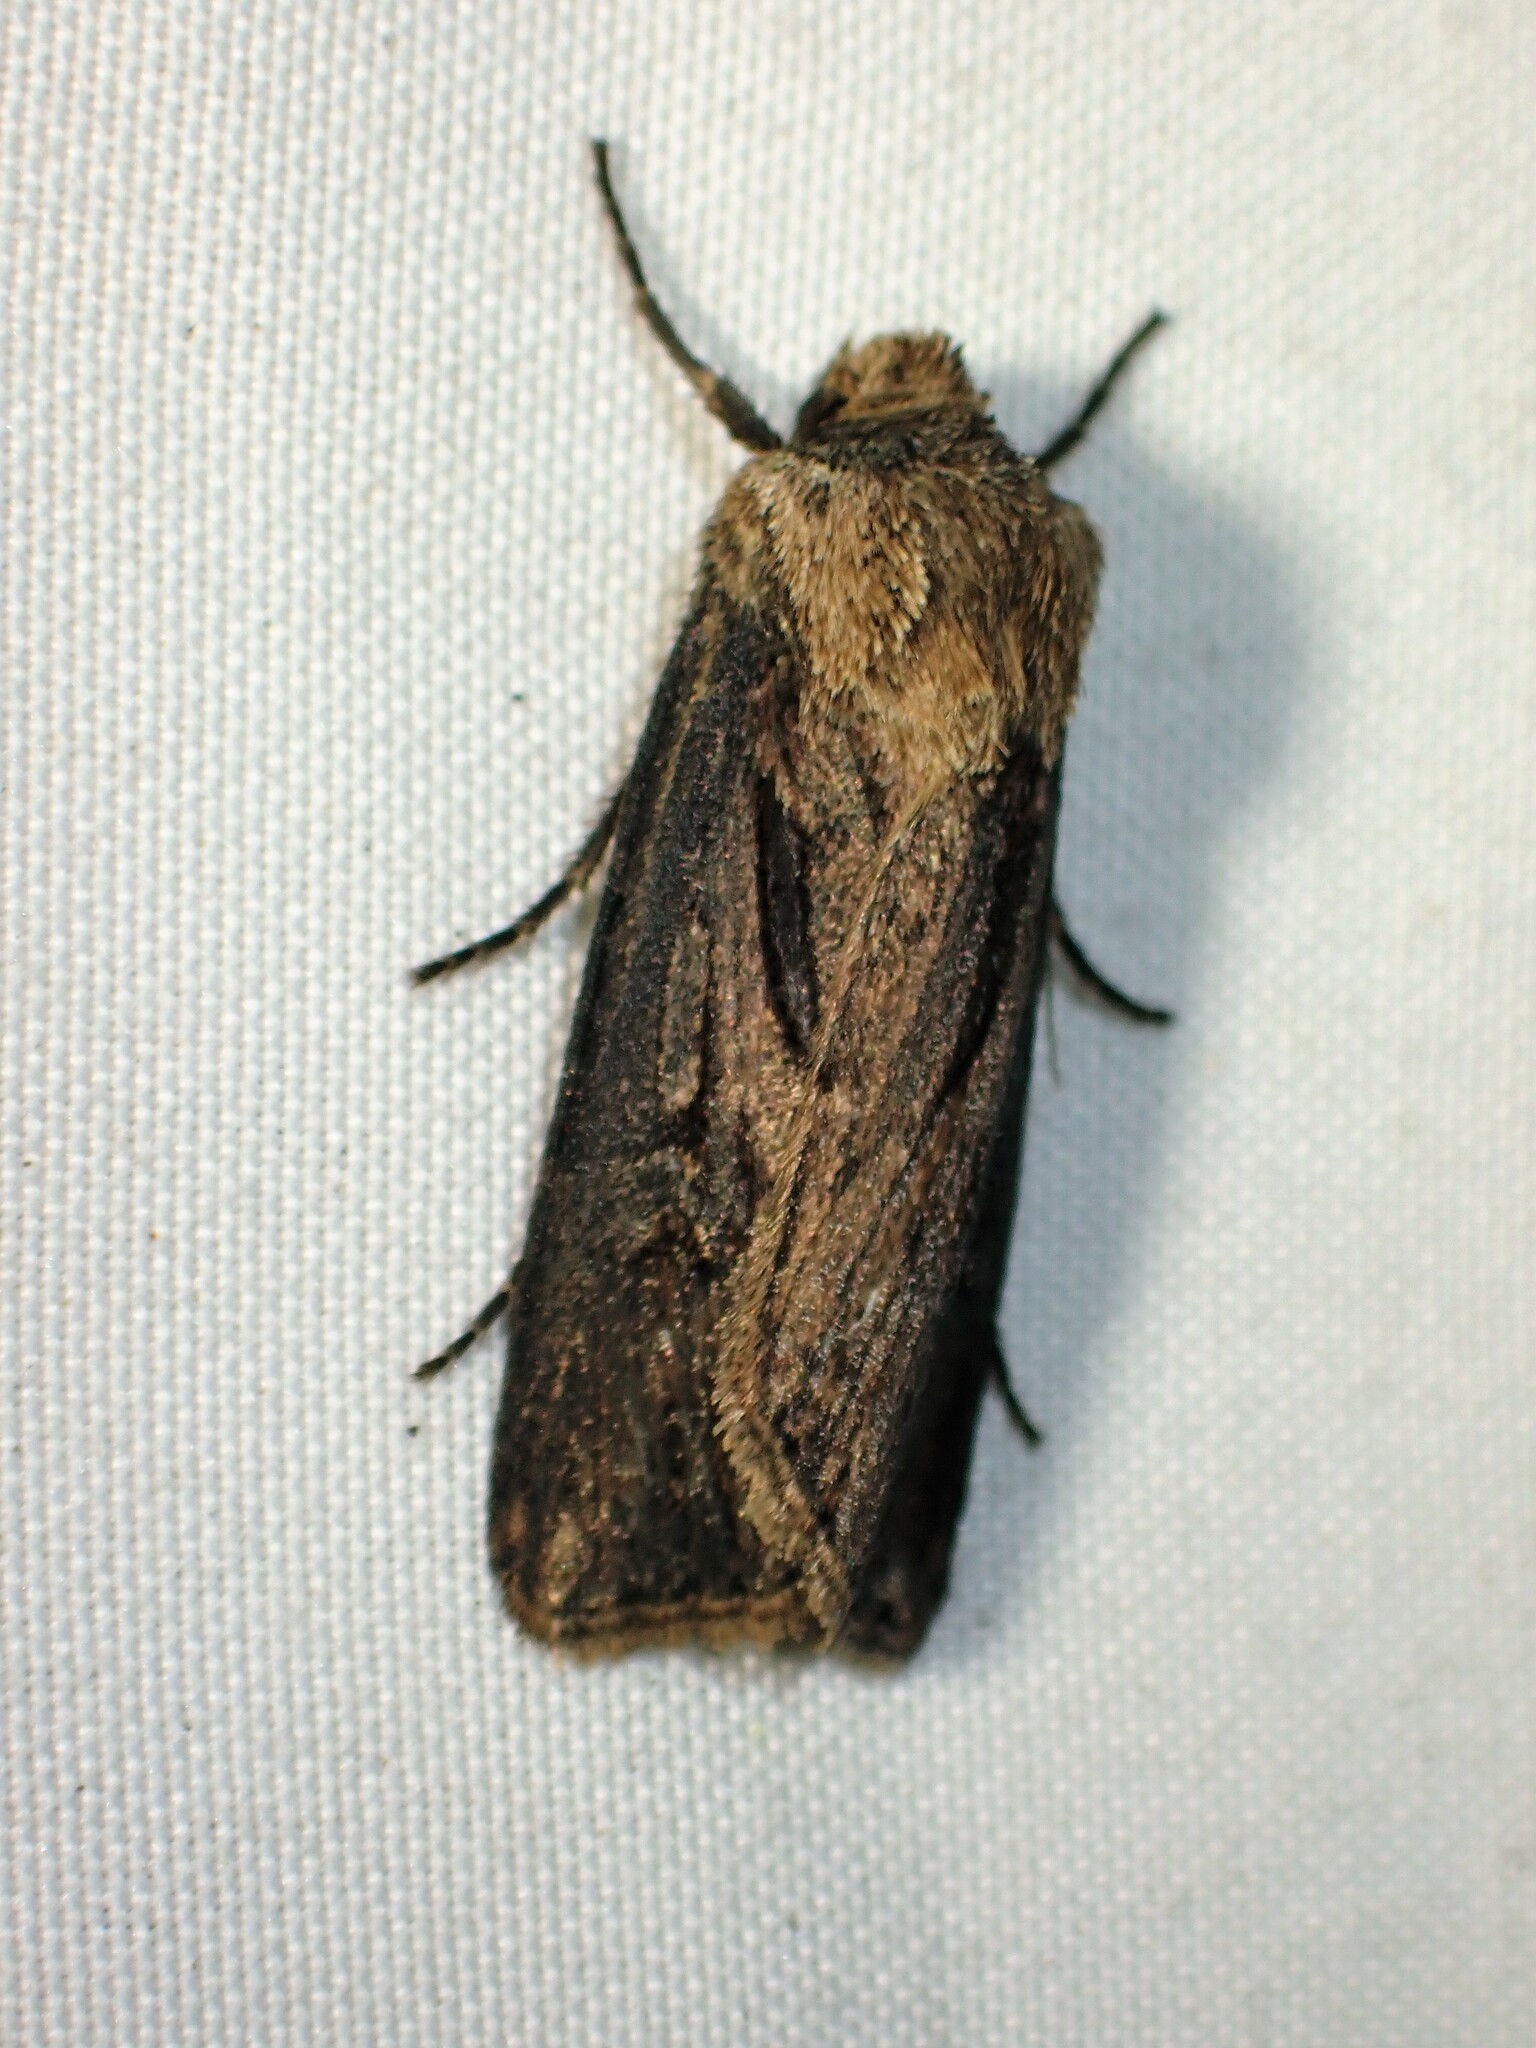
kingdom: Animalia
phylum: Arthropoda
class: Insecta
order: Lepidoptera
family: Noctuidae
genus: Agrotis
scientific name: Agrotis venerabilis
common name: Venerable dart
